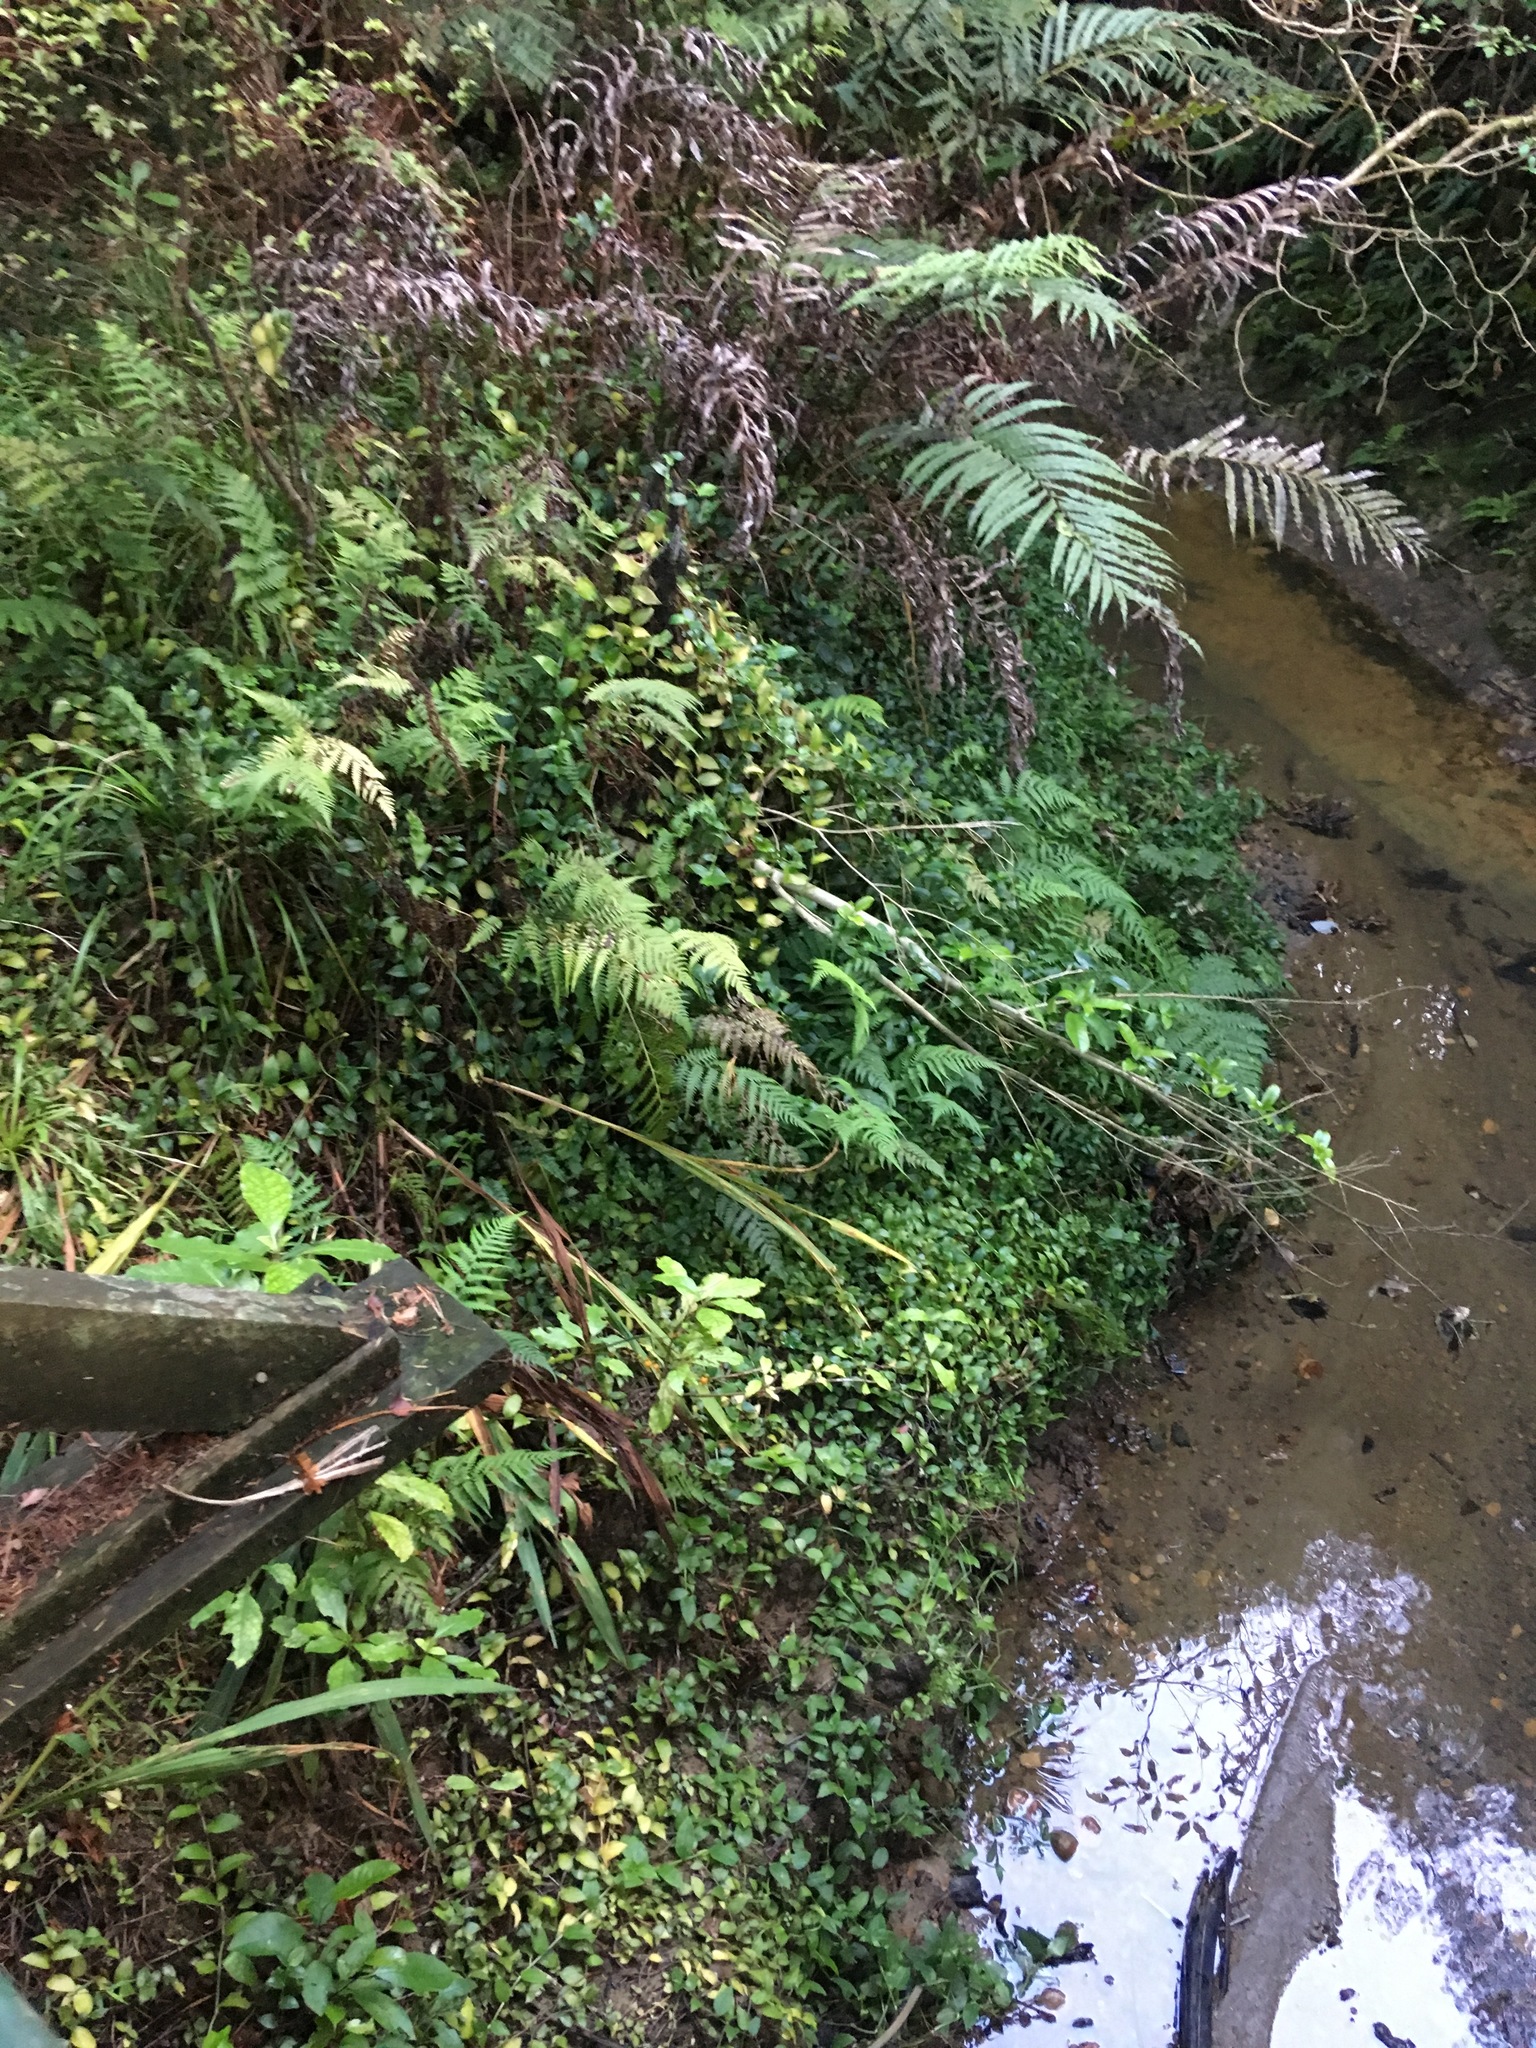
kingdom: Plantae
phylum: Tracheophyta
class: Liliopsida
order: Commelinales
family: Commelinaceae
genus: Tradescantia
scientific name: Tradescantia fluminensis
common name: Wandering-jew
